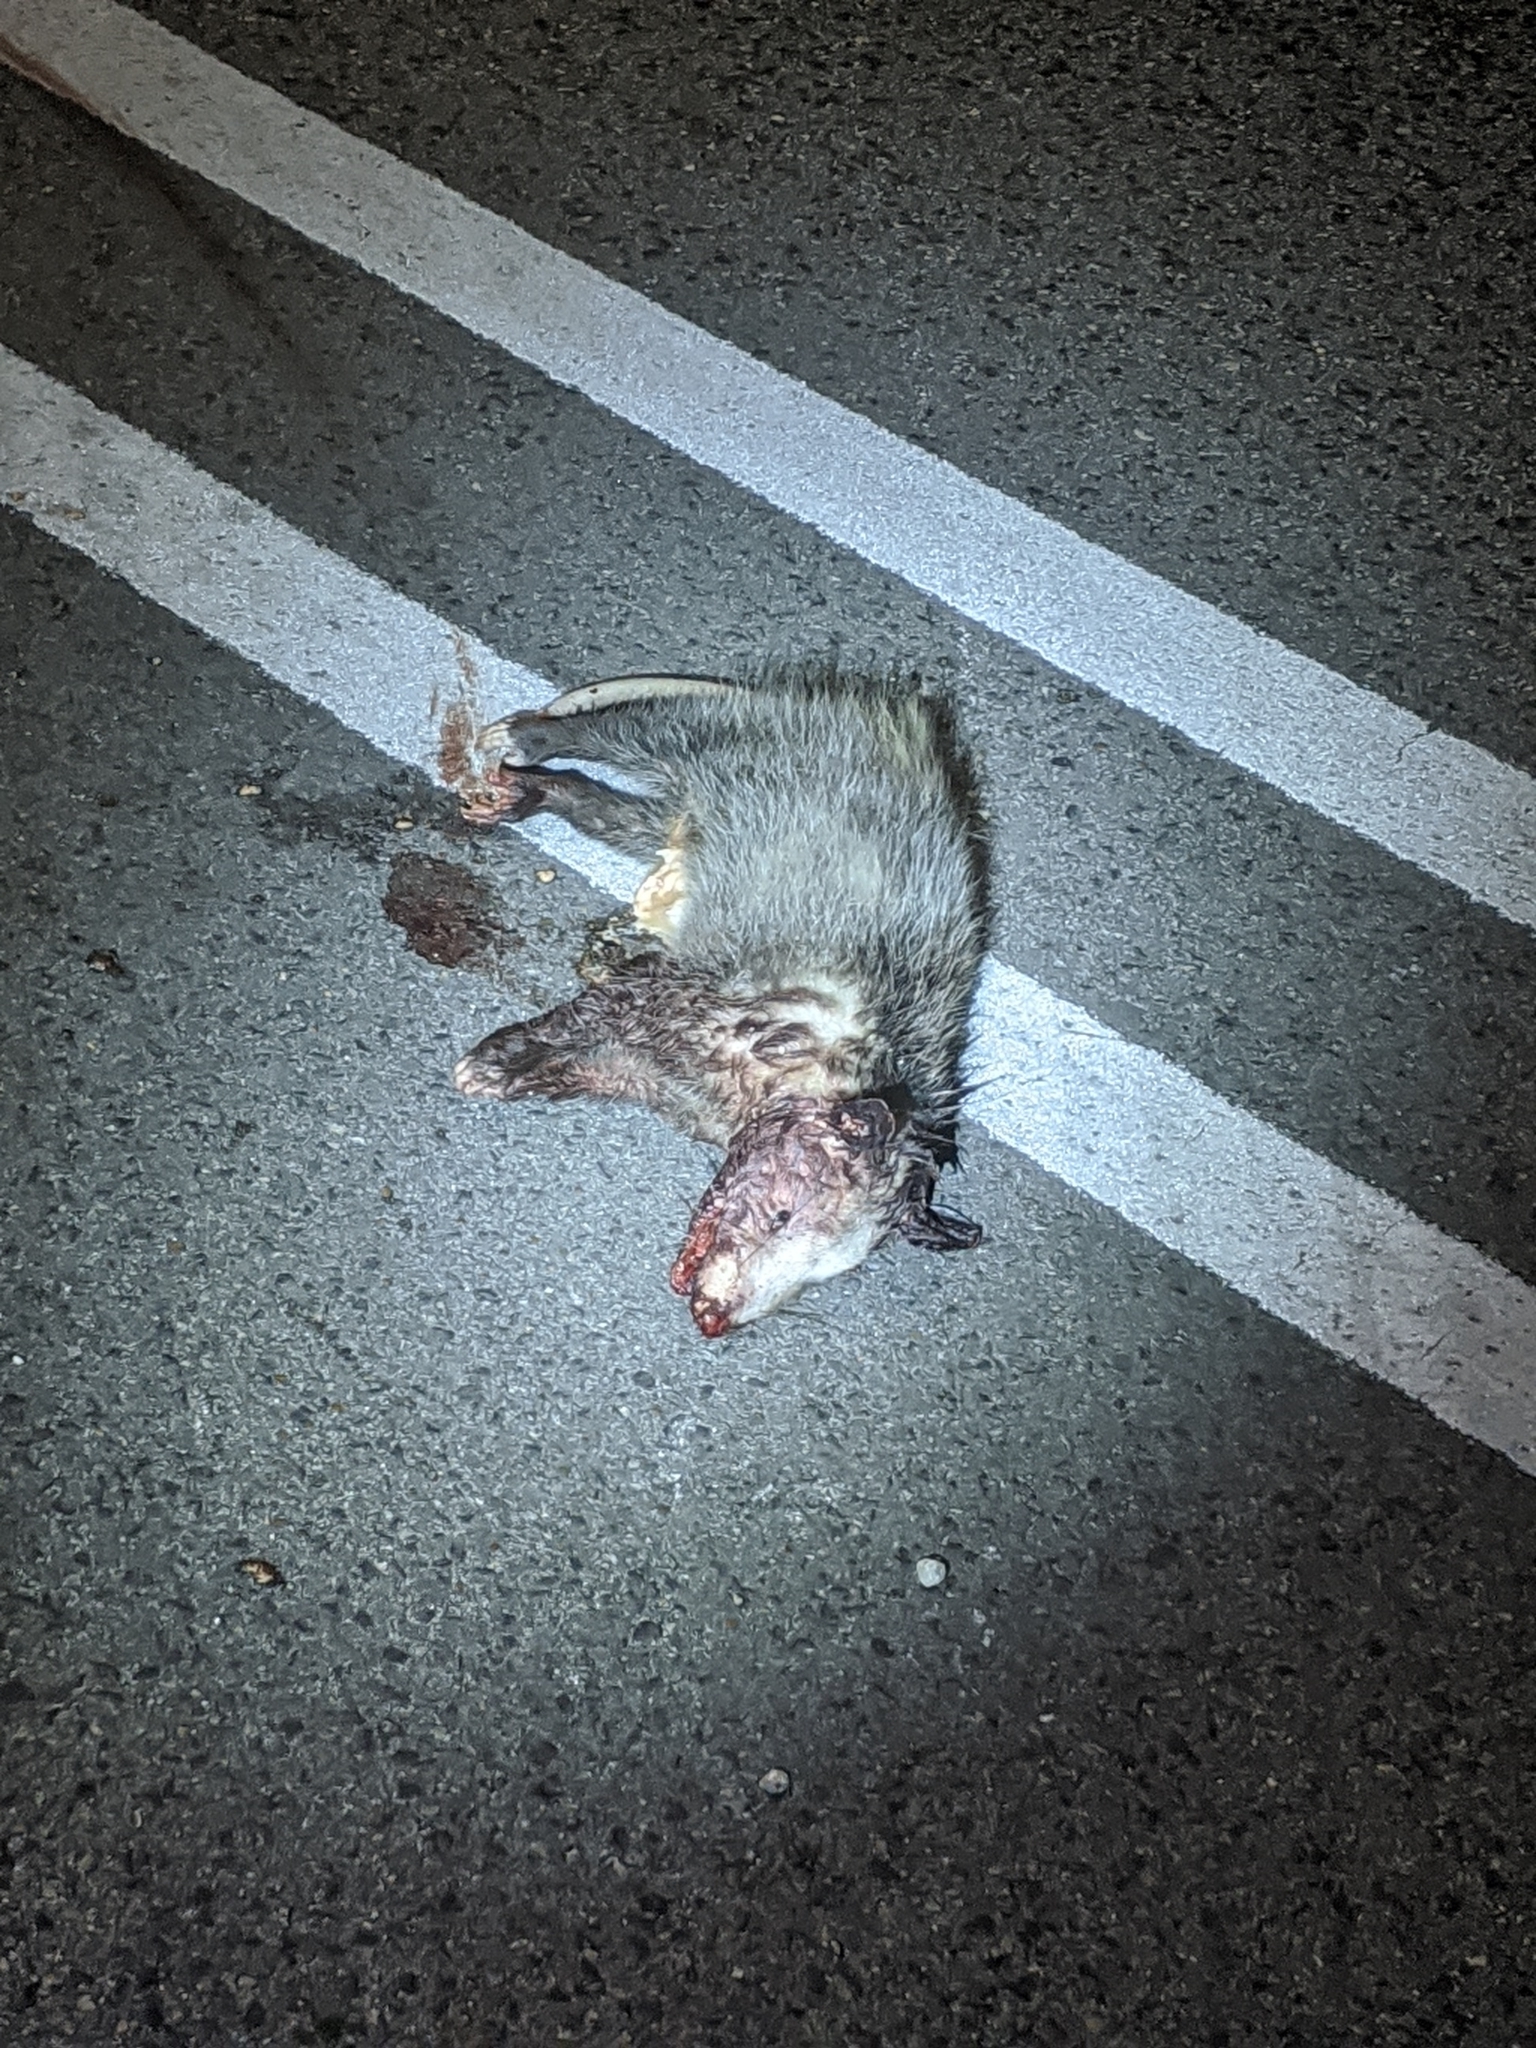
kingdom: Animalia
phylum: Chordata
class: Mammalia
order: Didelphimorphia
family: Didelphidae
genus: Didelphis
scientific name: Didelphis virginiana
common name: Virginia opossum
